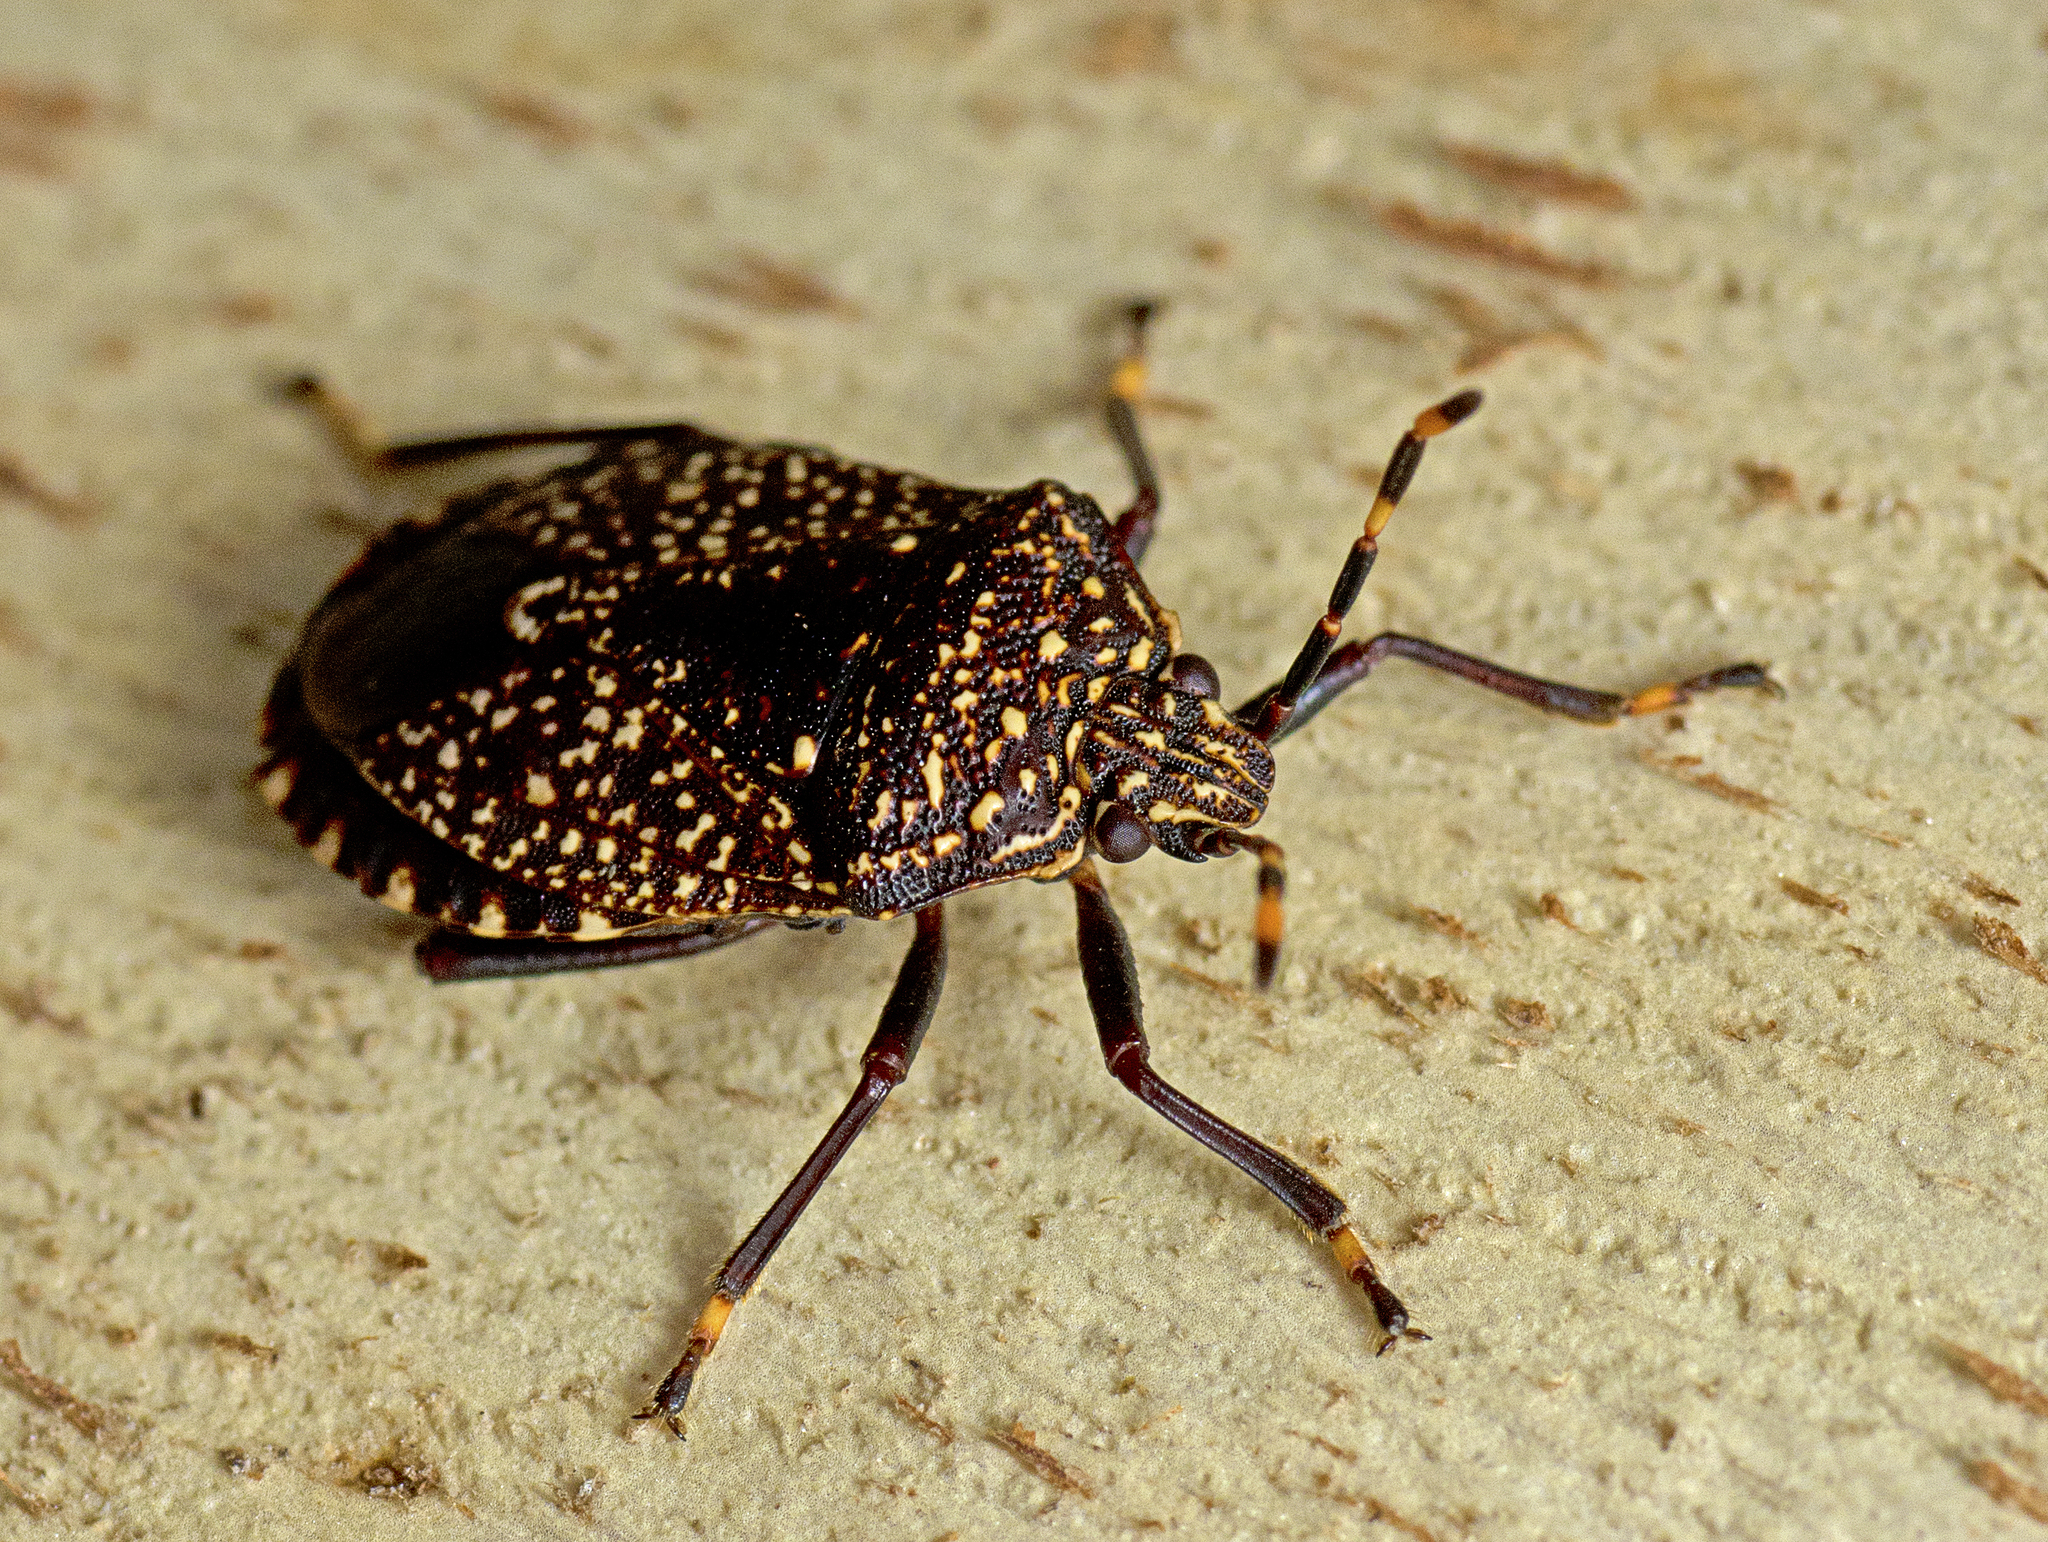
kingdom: Animalia
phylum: Arthropoda
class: Insecta
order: Hemiptera
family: Pentatomidae
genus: Notius
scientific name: Notius
